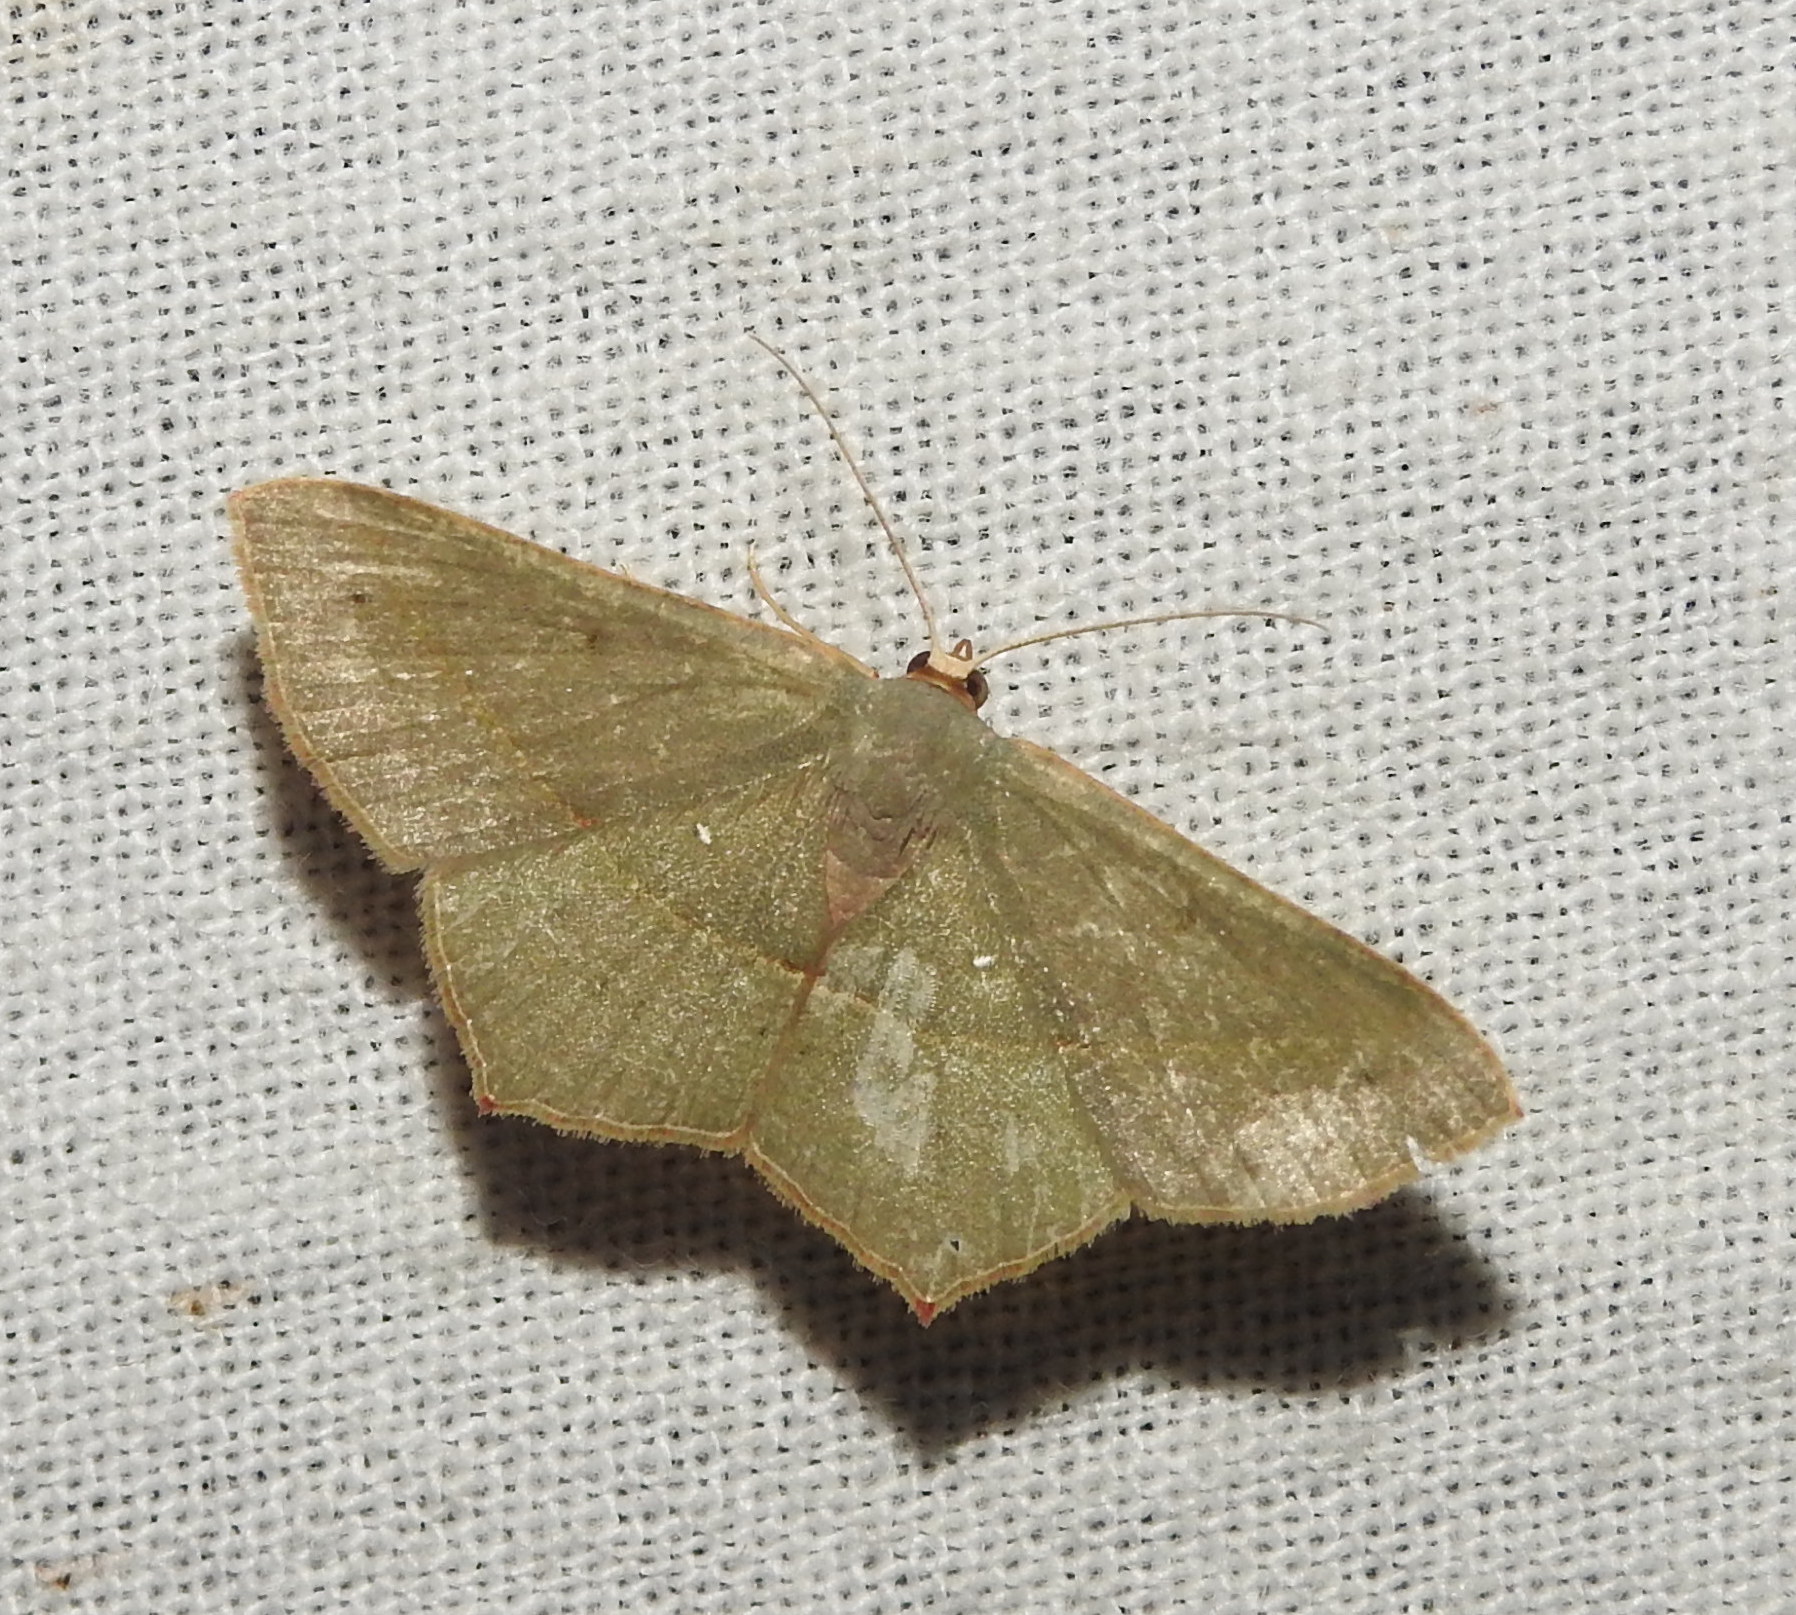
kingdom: Animalia
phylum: Arthropoda
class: Insecta
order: Lepidoptera
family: Geometridae
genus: Traminda
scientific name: Traminda mundissima
